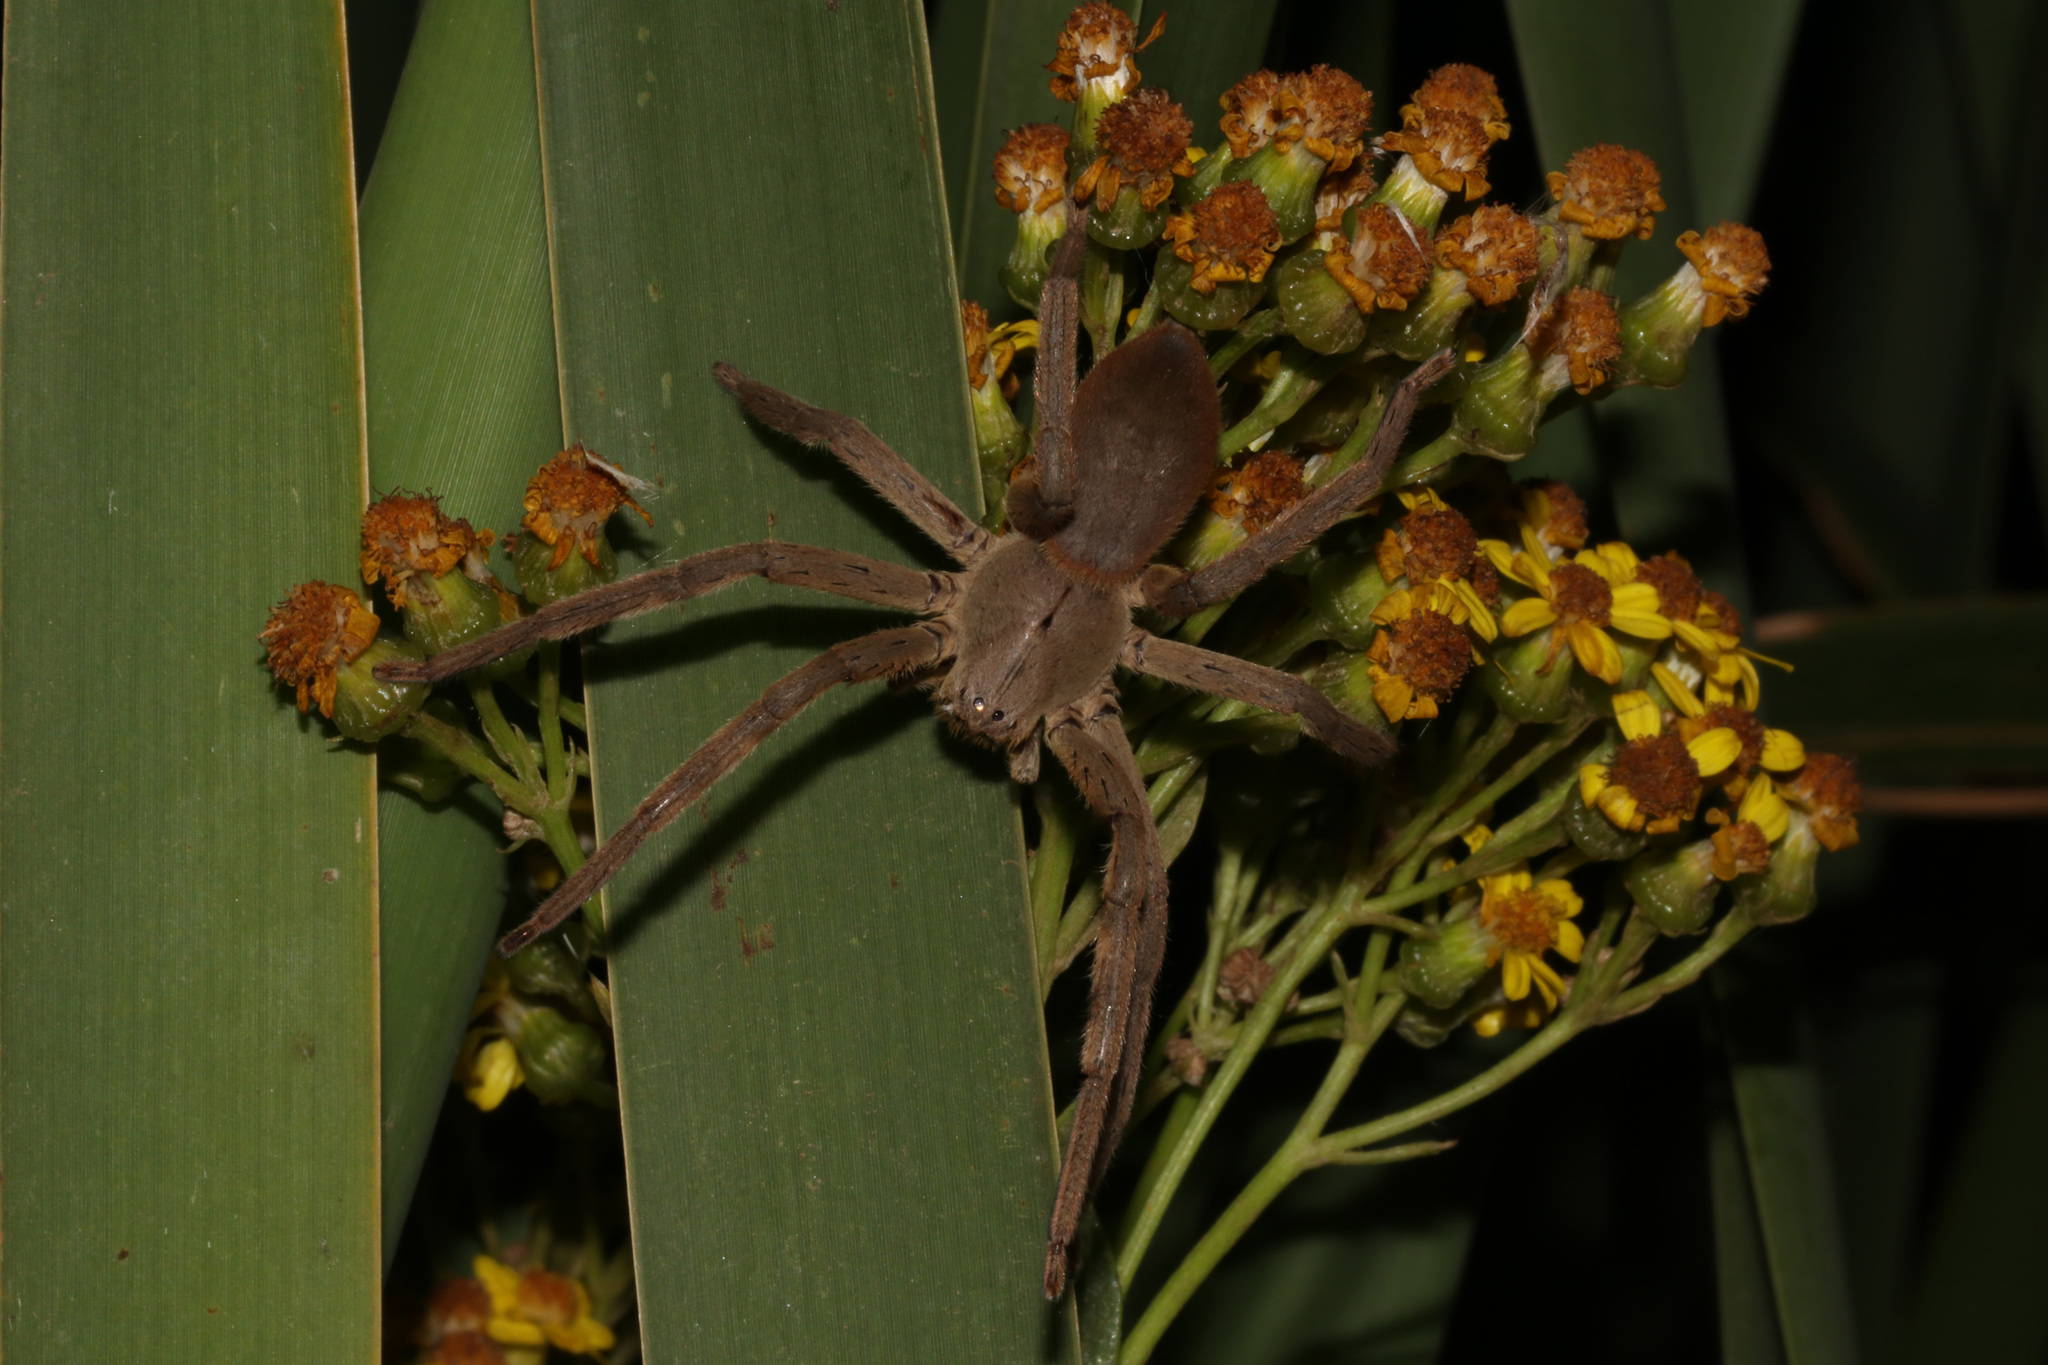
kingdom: Animalia
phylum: Arthropoda
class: Arachnida
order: Araneae
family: Sparassidae
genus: Palystes
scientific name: Palystes castaneus
